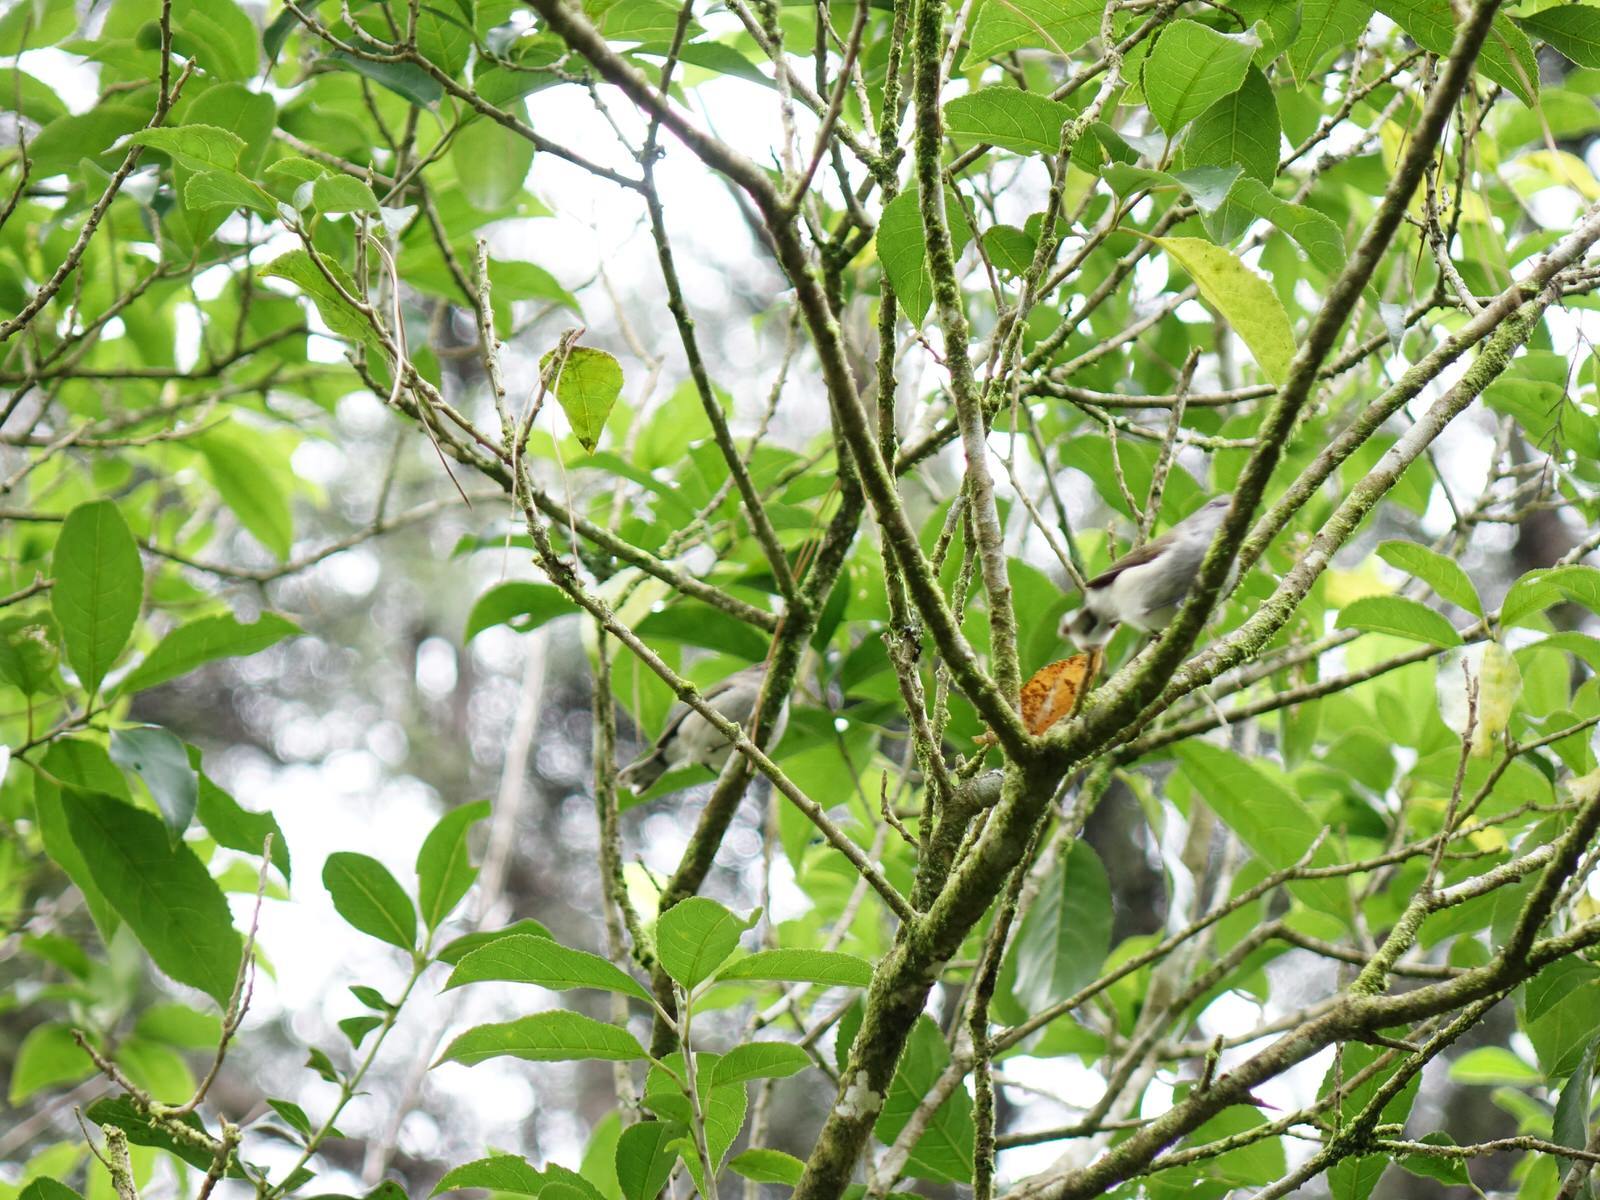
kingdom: Animalia
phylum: Chordata
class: Aves
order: Passeriformes
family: Acanthizidae
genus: Gerygone
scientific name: Gerygone igata
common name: Grey gerygone
